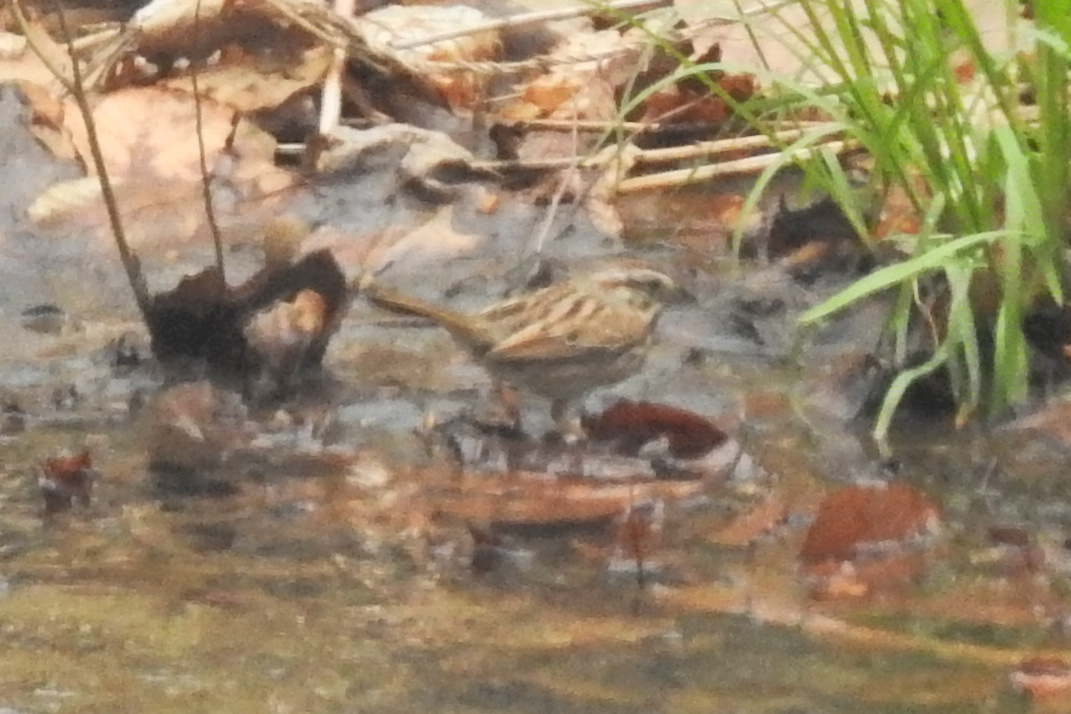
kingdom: Animalia
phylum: Chordata
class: Aves
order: Passeriformes
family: Passerellidae
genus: Melospiza
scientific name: Melospiza melodia
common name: Song sparrow
